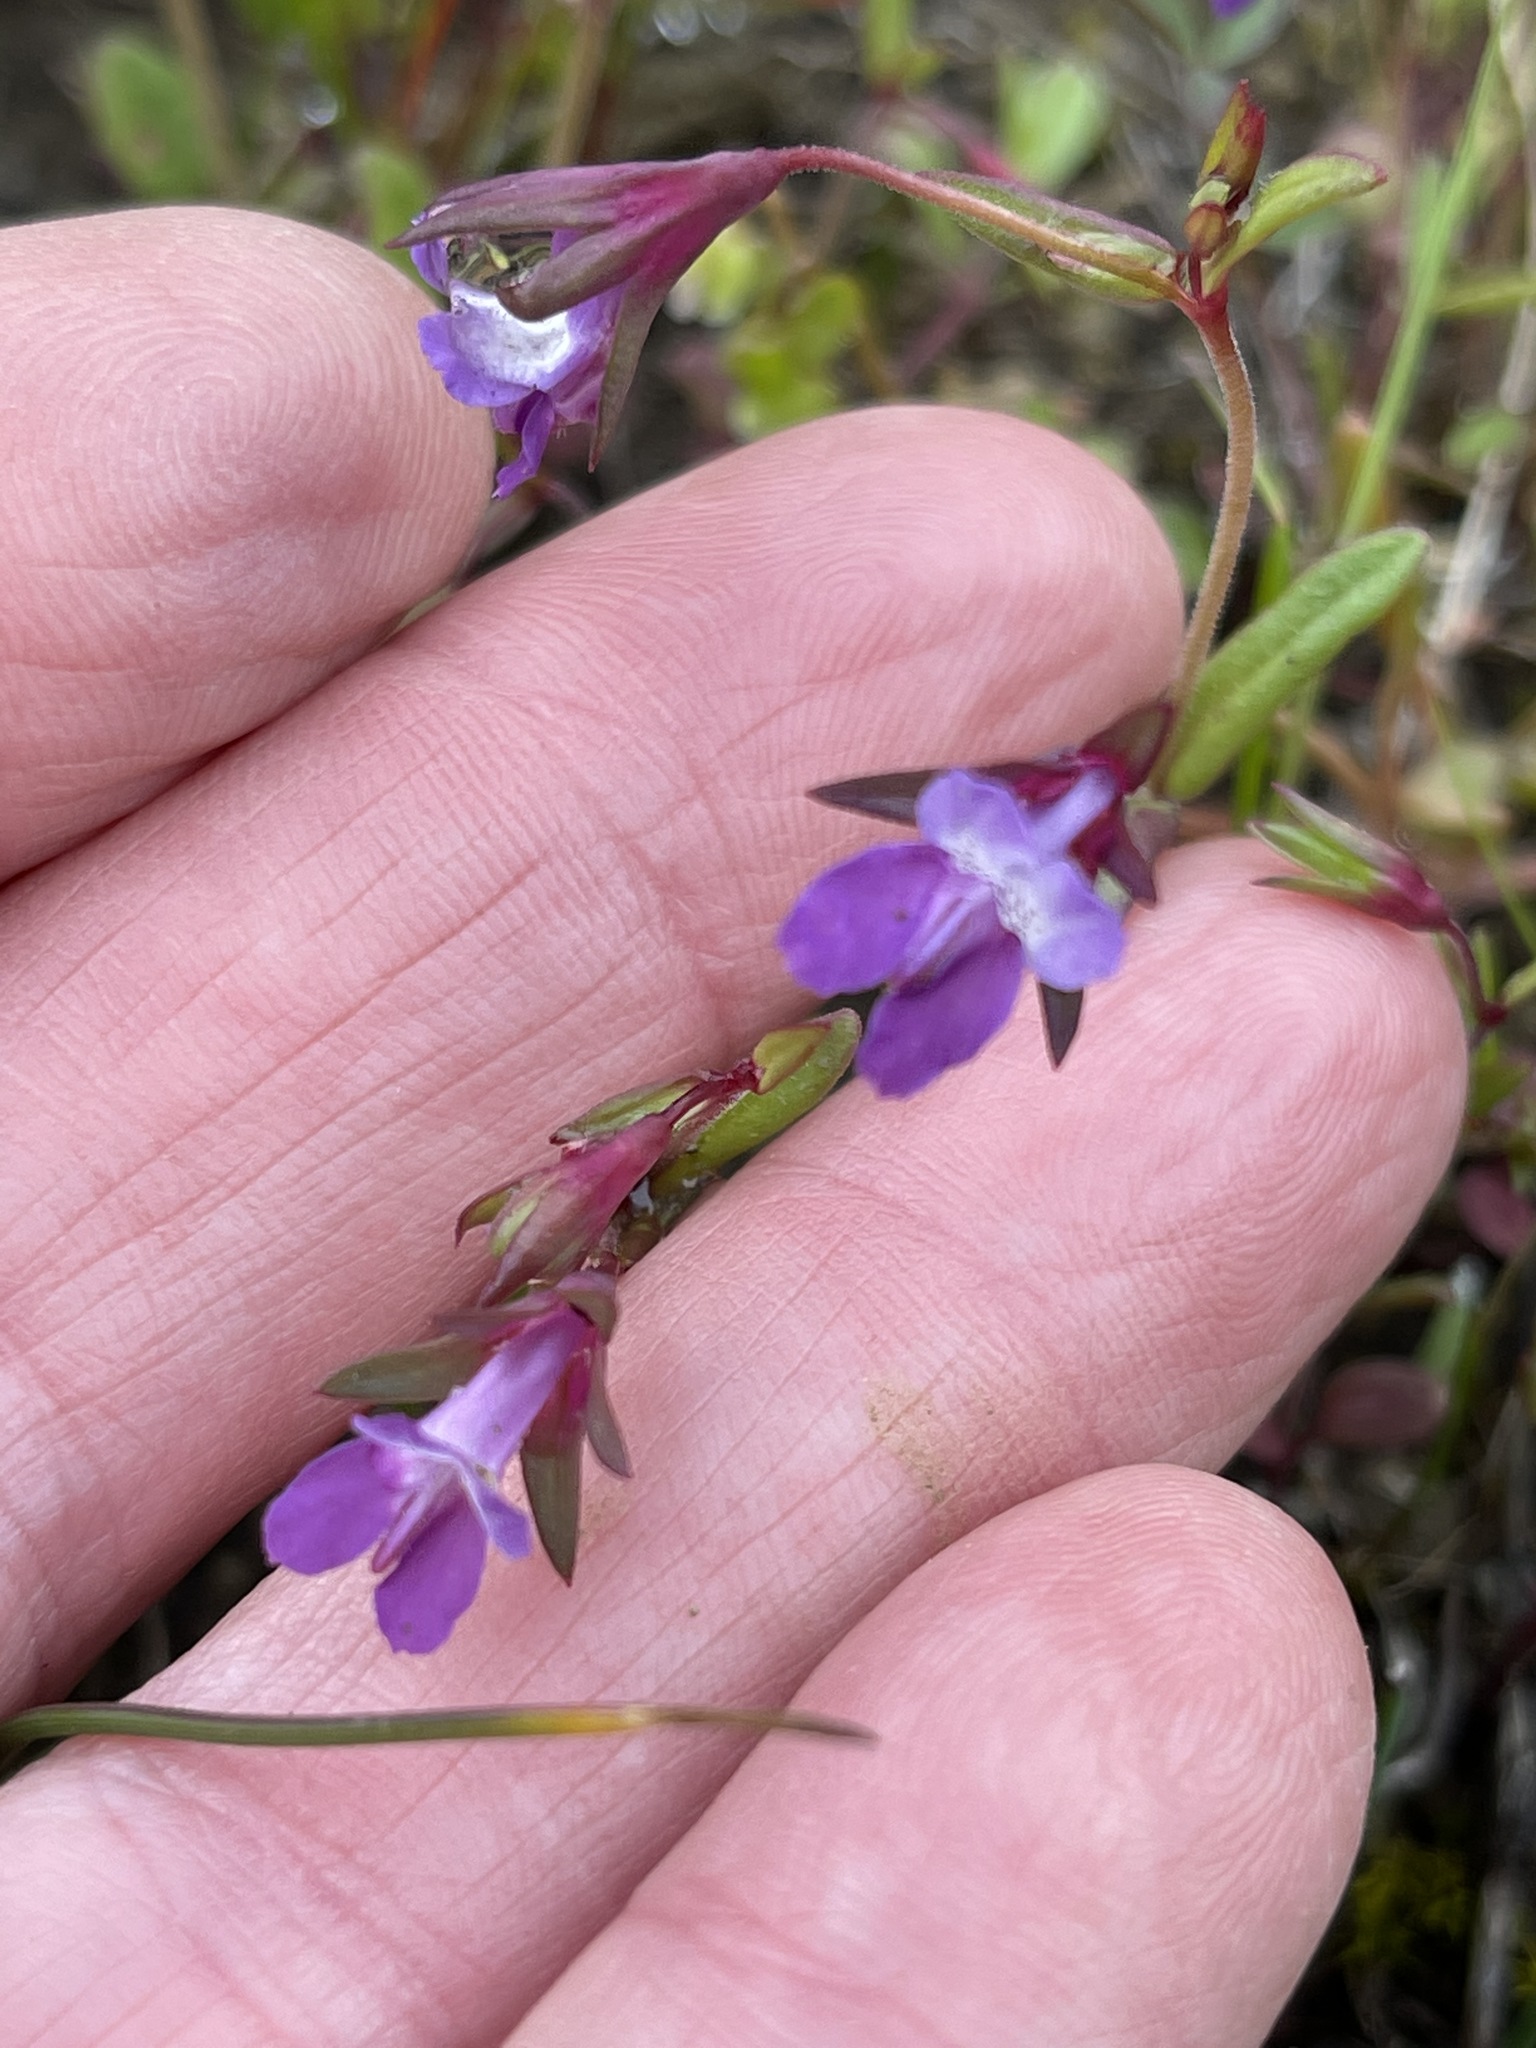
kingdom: Plantae
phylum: Tracheophyta
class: Magnoliopsida
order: Lamiales
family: Plantaginaceae
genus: Collinsia
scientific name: Collinsia sparsiflora
